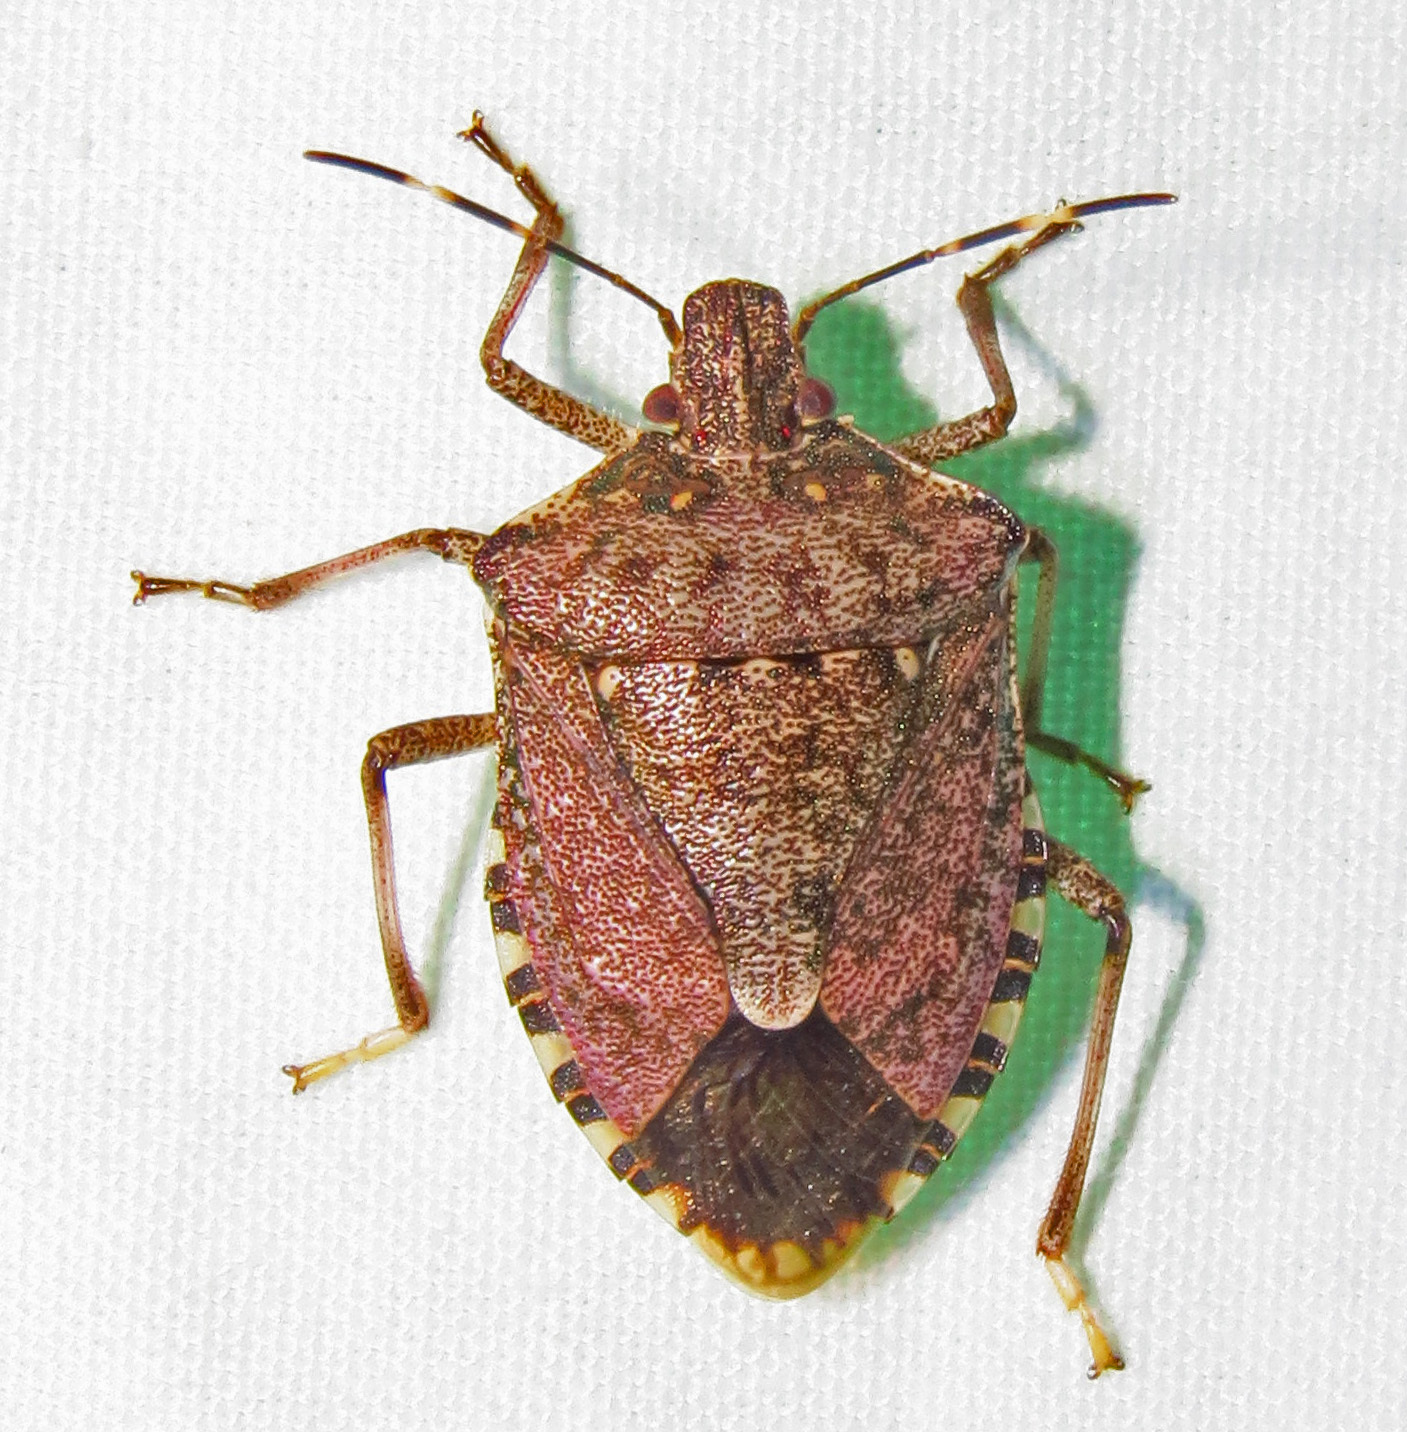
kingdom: Animalia
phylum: Arthropoda
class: Insecta
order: Hemiptera
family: Pentatomidae
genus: Halyomorpha
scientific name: Halyomorpha halys
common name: Brown marmorated stink bug
